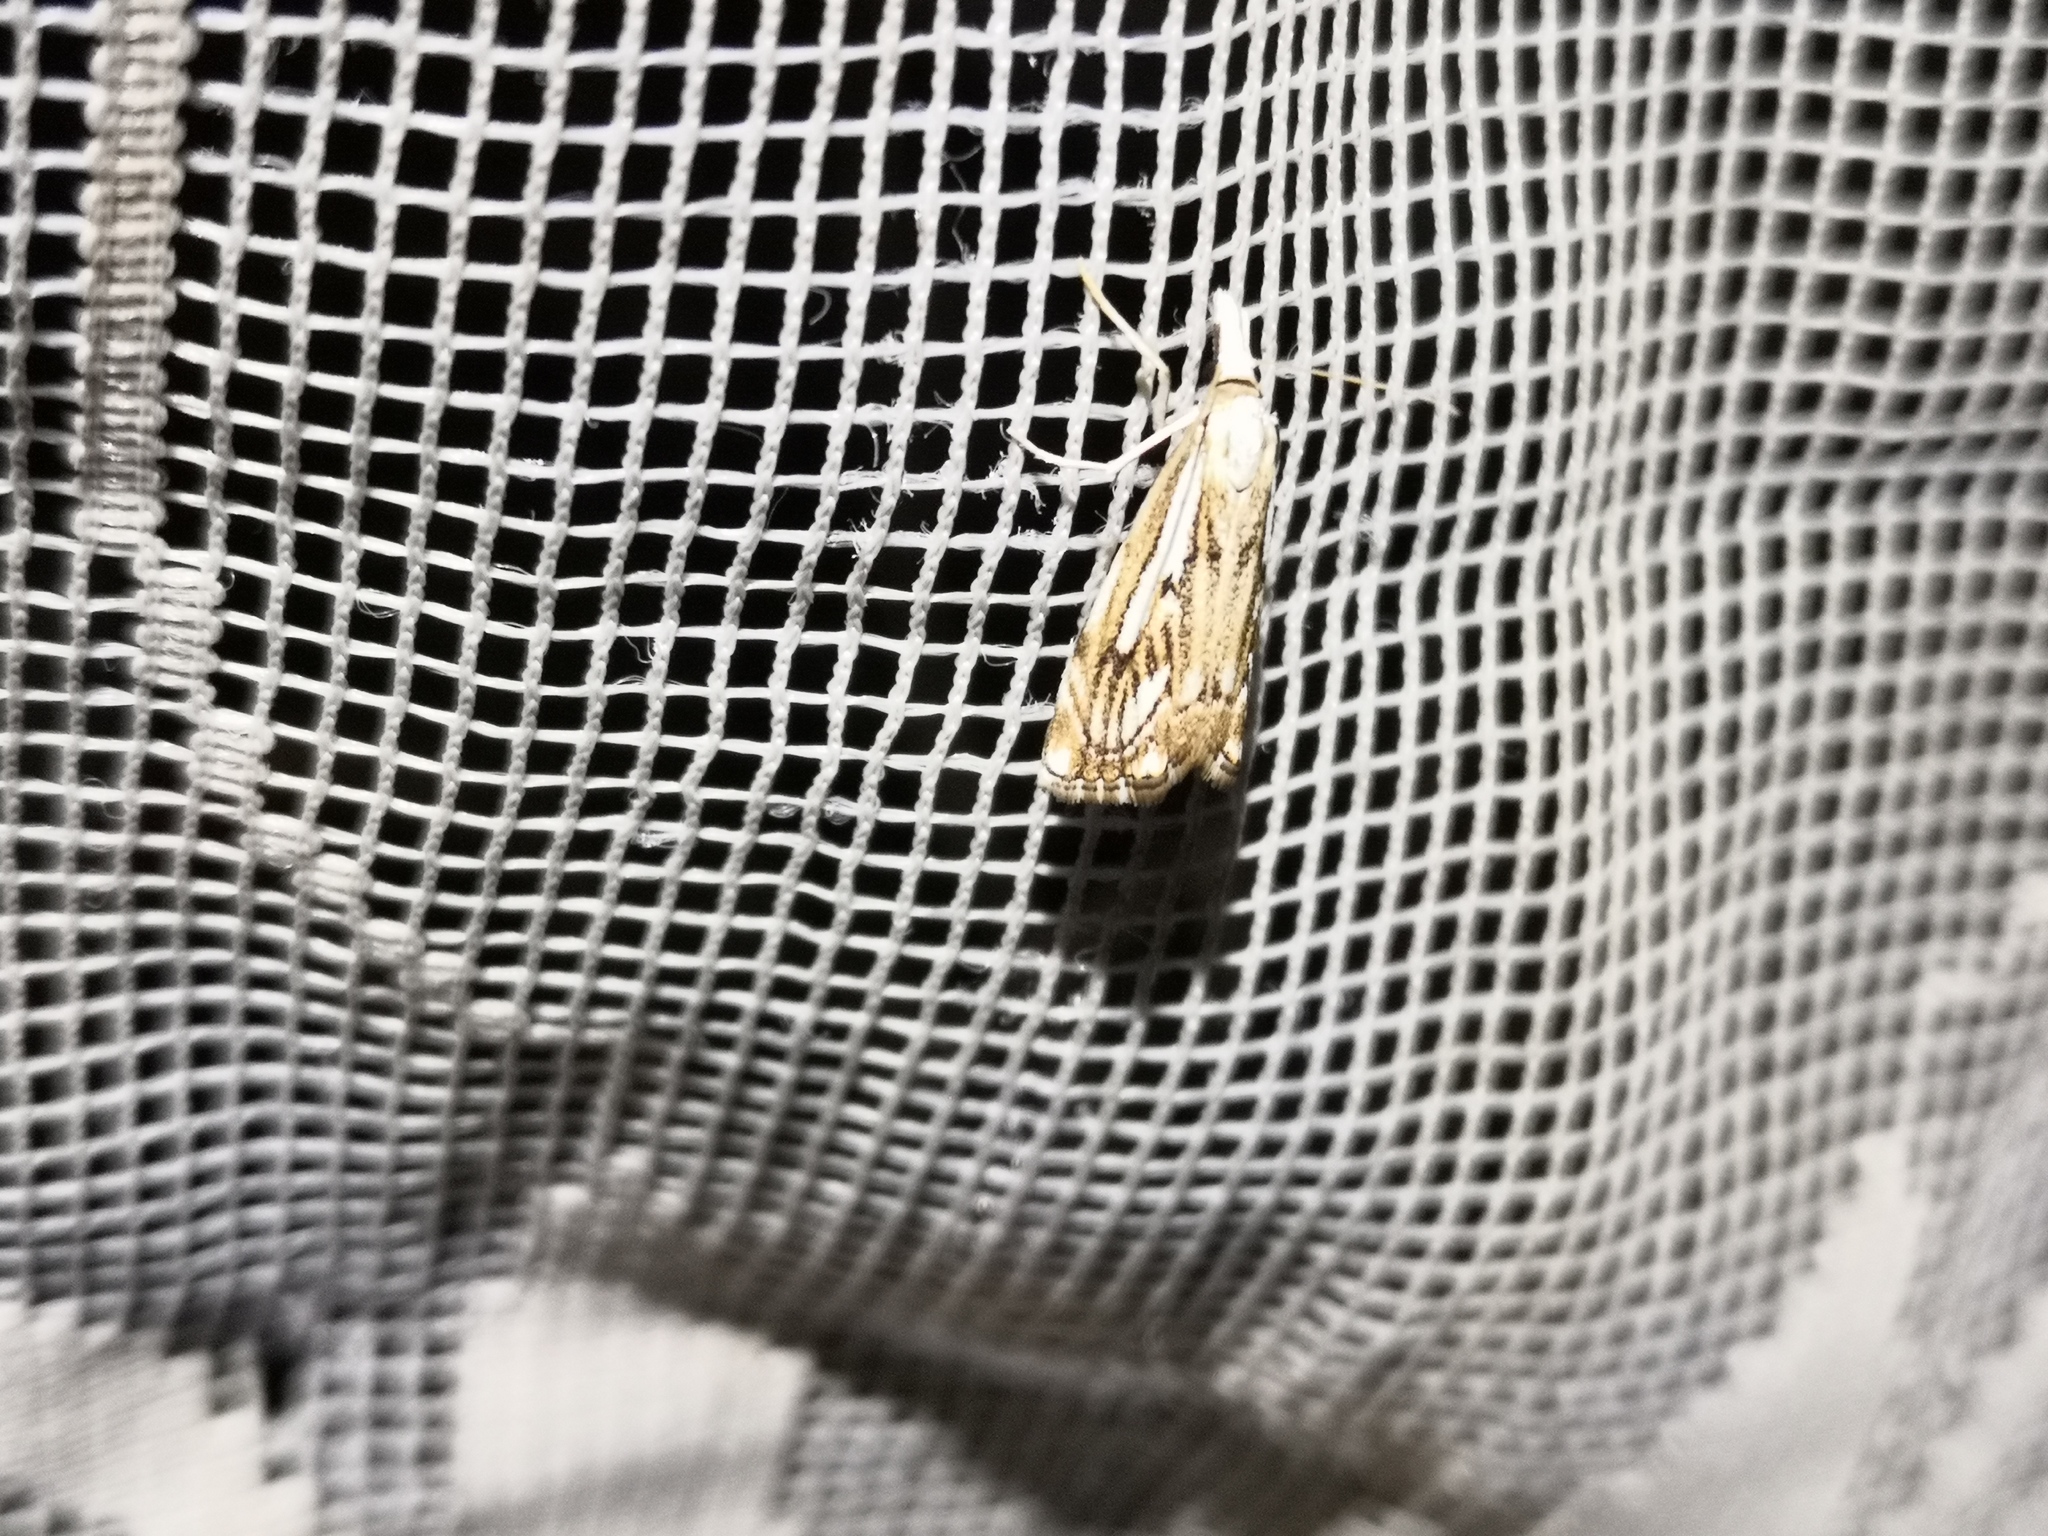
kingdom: Animalia
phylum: Arthropoda
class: Insecta
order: Lepidoptera
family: Crambidae
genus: Catoptria
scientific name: Catoptria falsella
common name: Chequered grass-veneer
